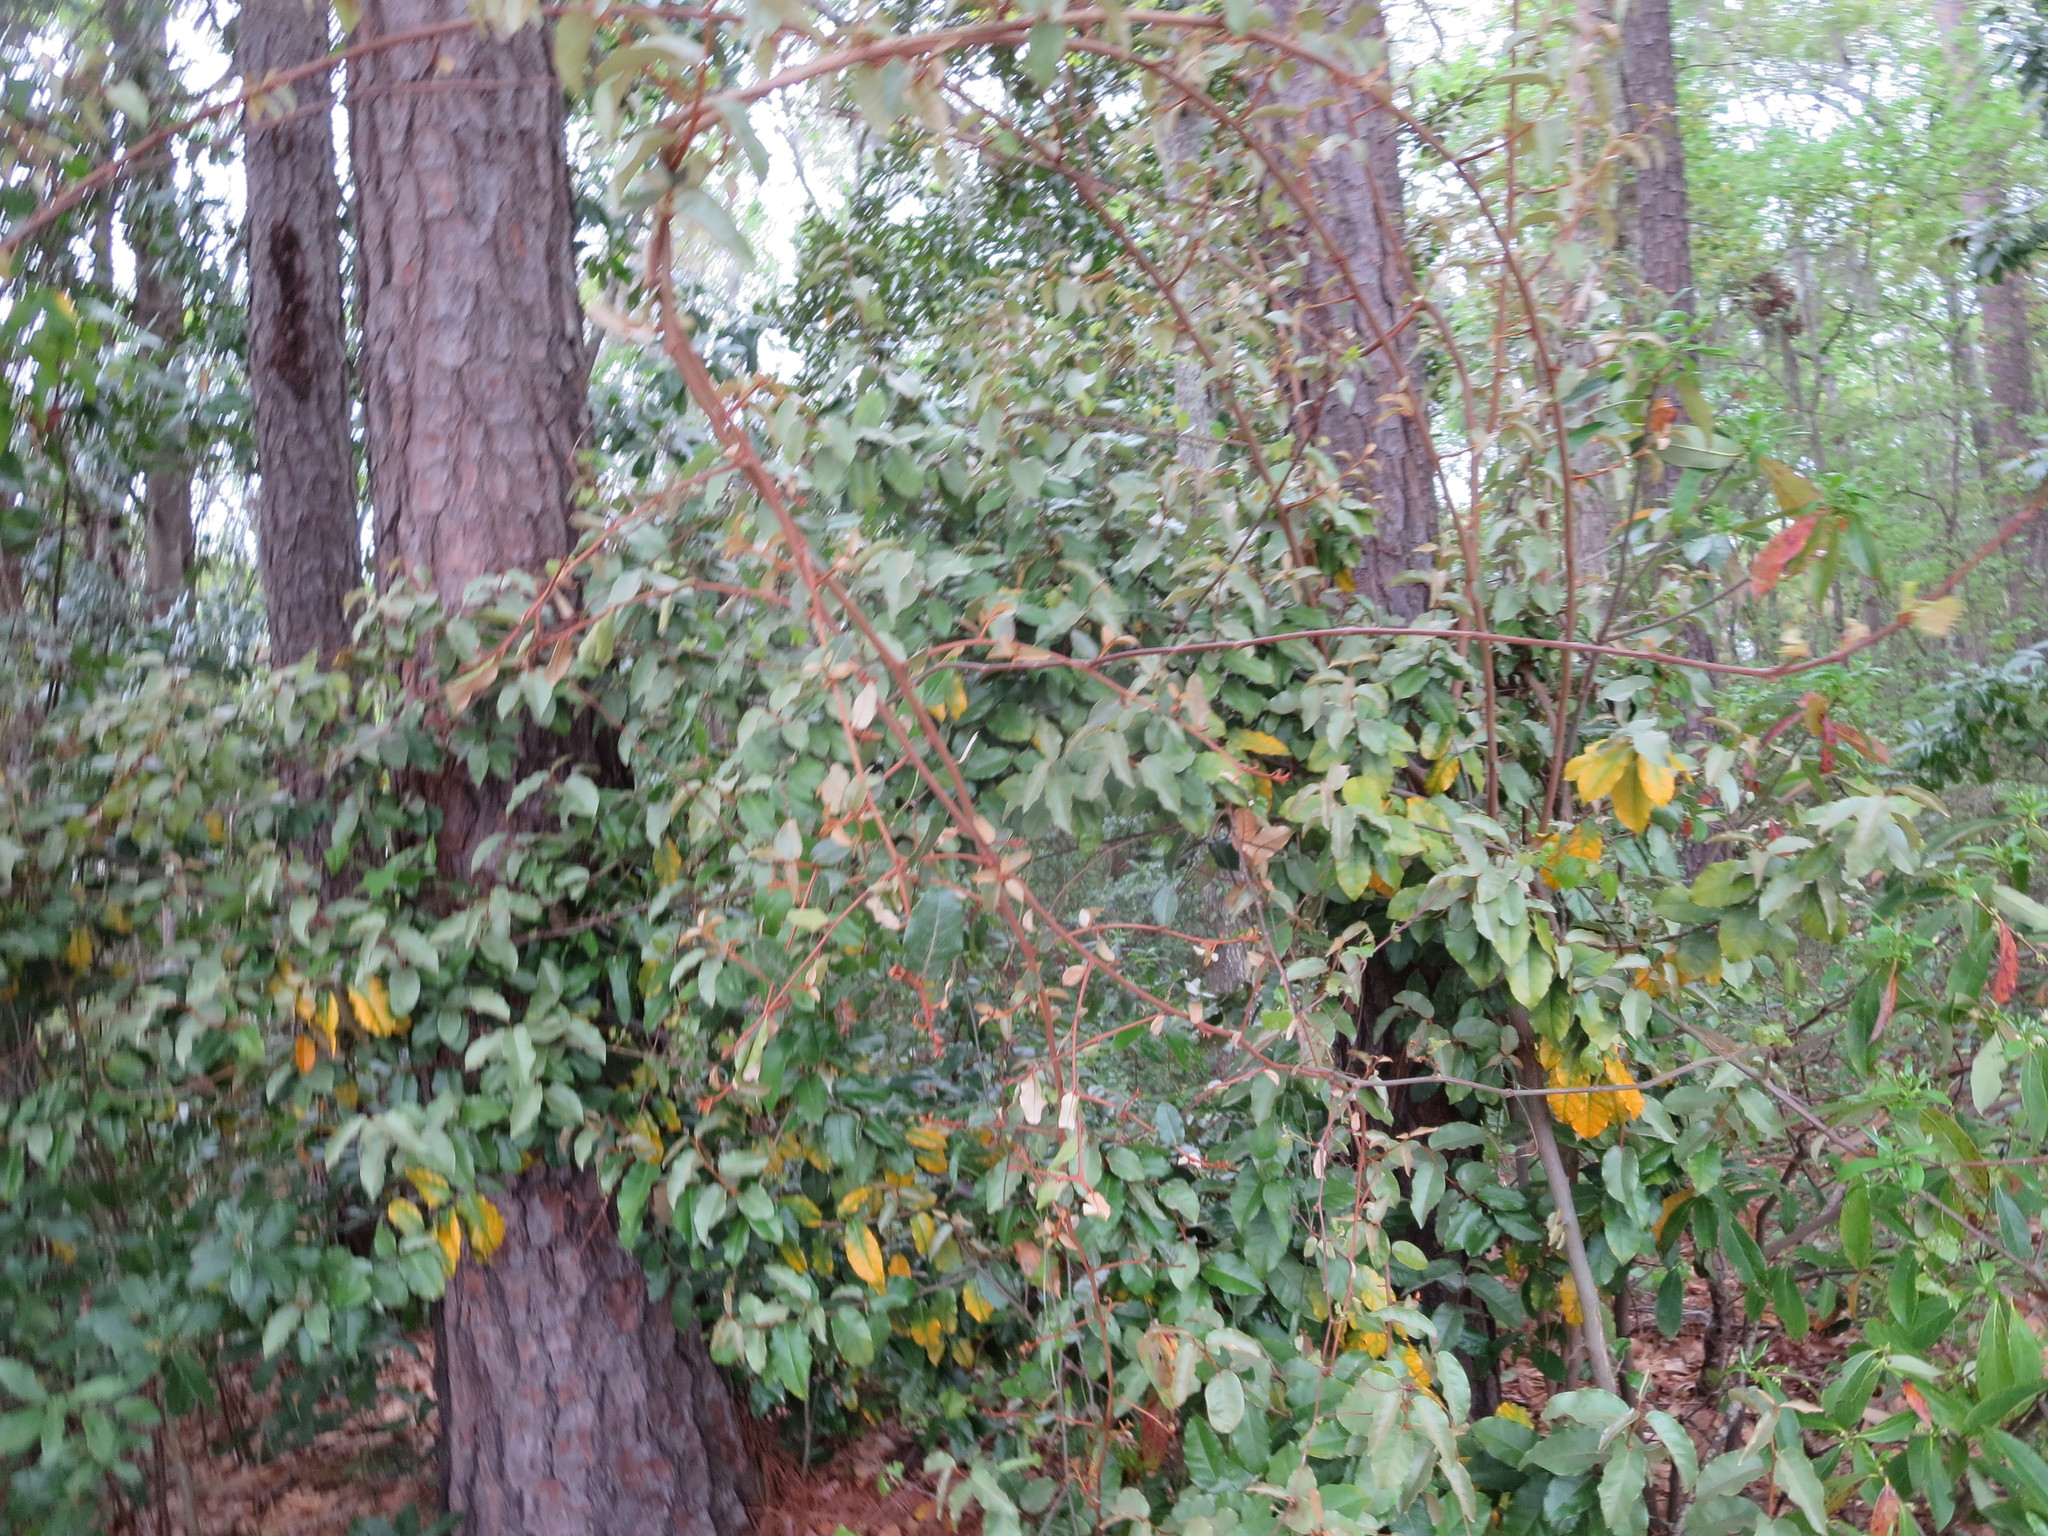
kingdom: Plantae
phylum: Tracheophyta
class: Magnoliopsida
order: Rosales
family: Elaeagnaceae
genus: Elaeagnus
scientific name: Elaeagnus pungens
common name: Spiny oleaster
